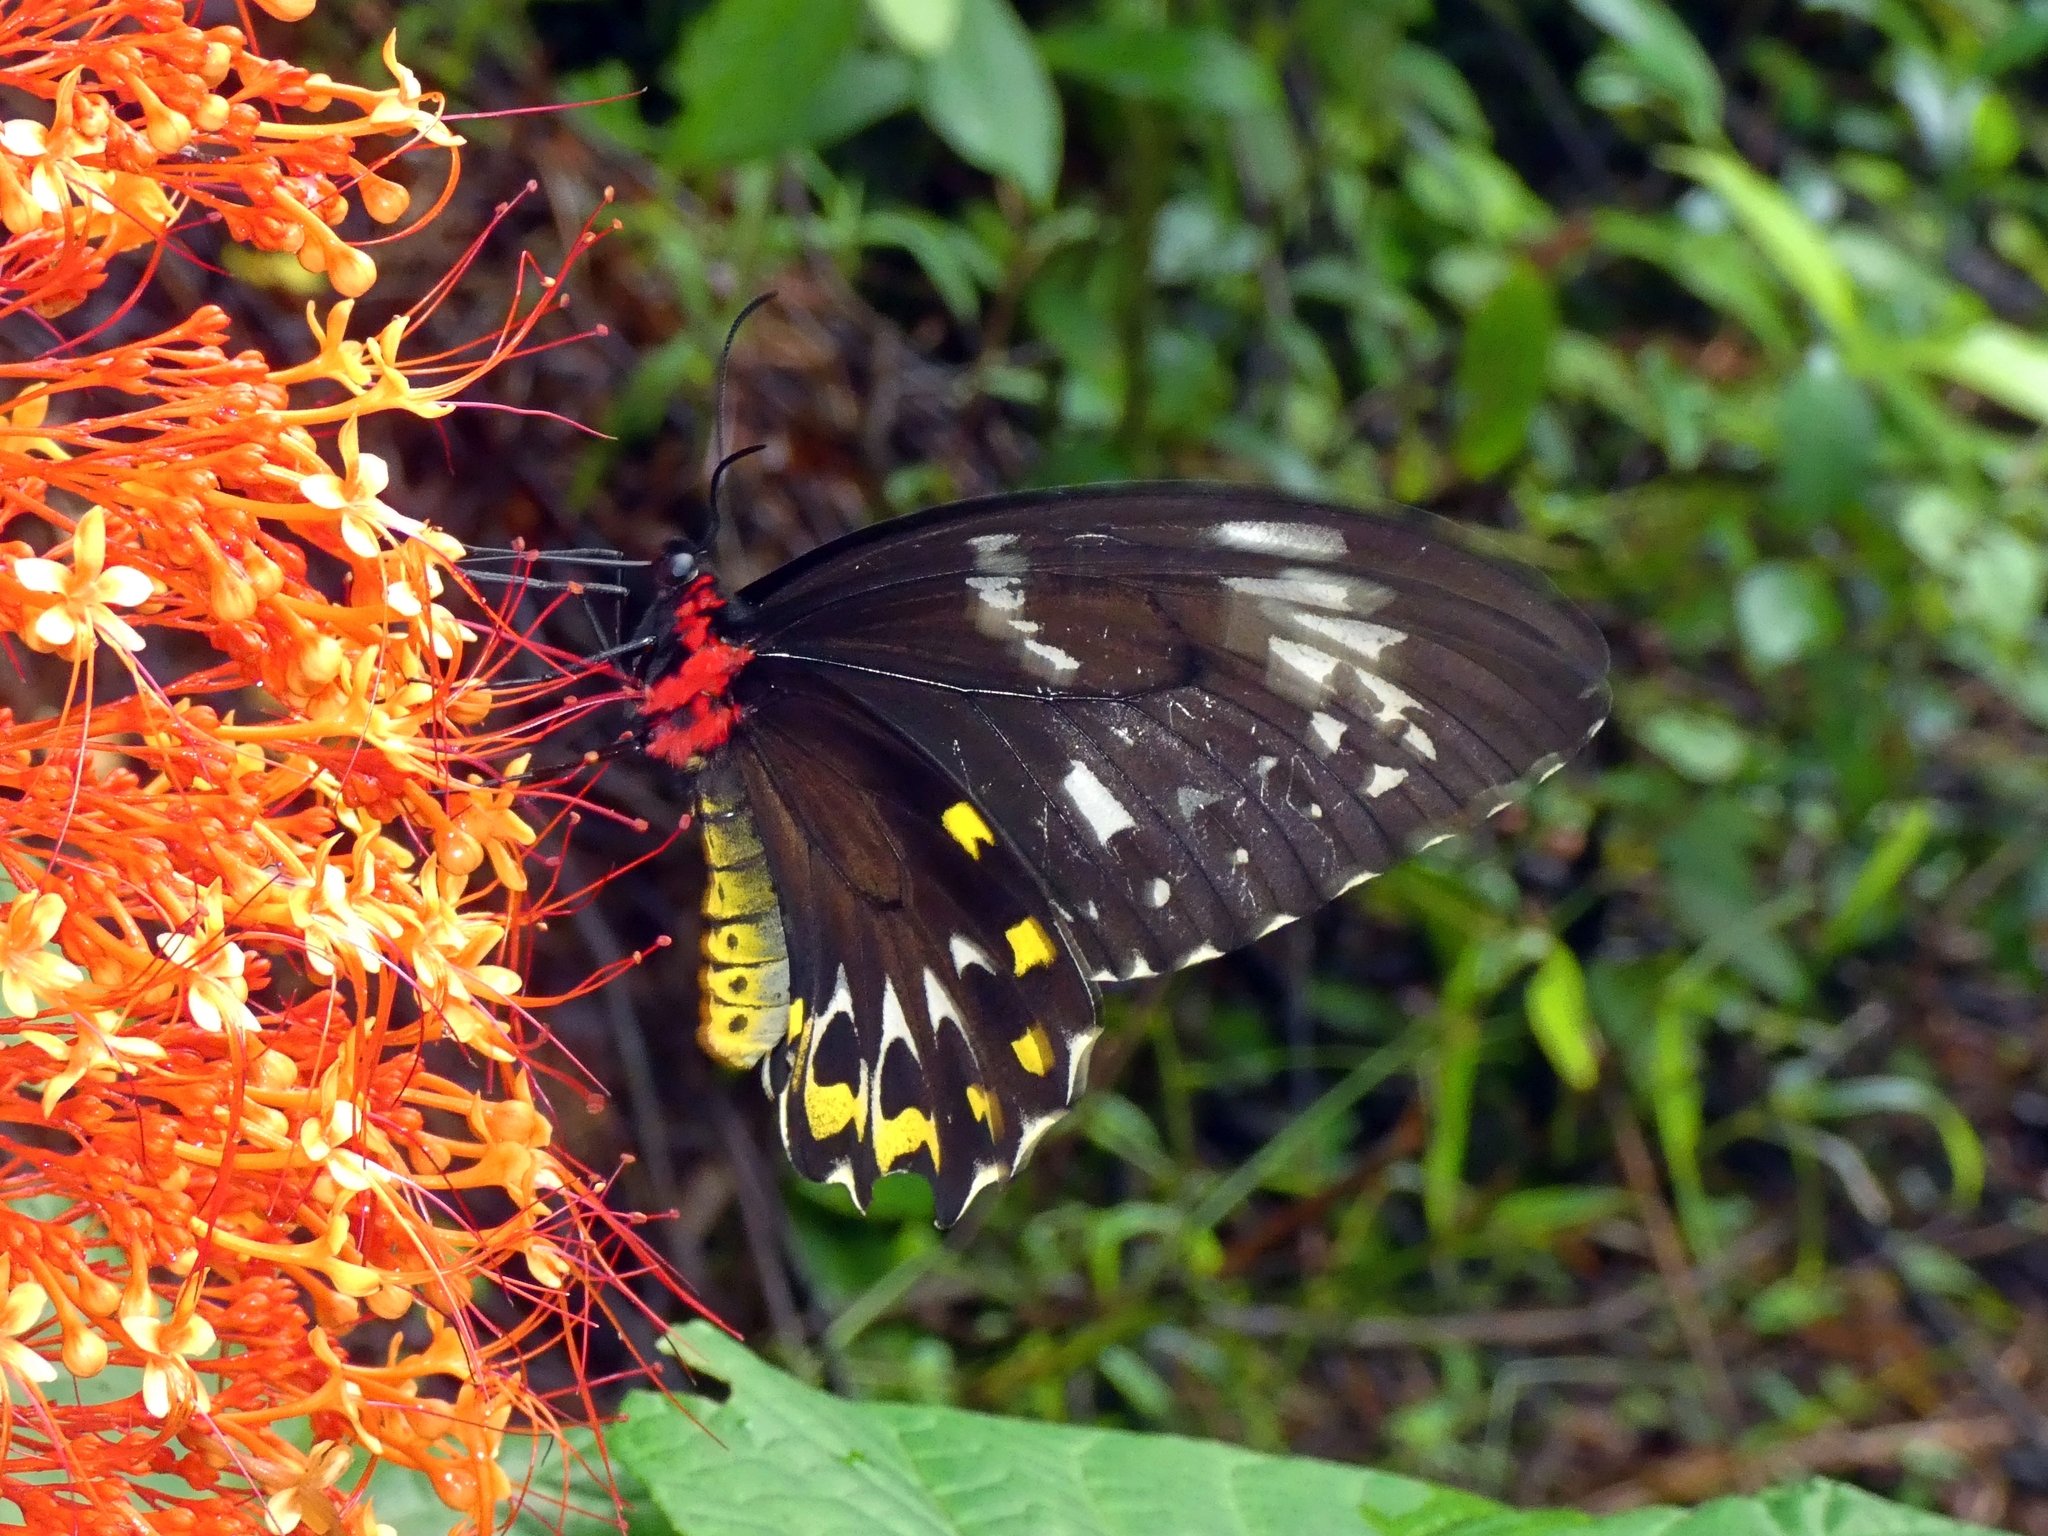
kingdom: Animalia
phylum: Arthropoda
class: Insecta
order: Lepidoptera
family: Papilionidae
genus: Ornithoptera
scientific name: Ornithoptera euphorion
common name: Cairns birdwing
